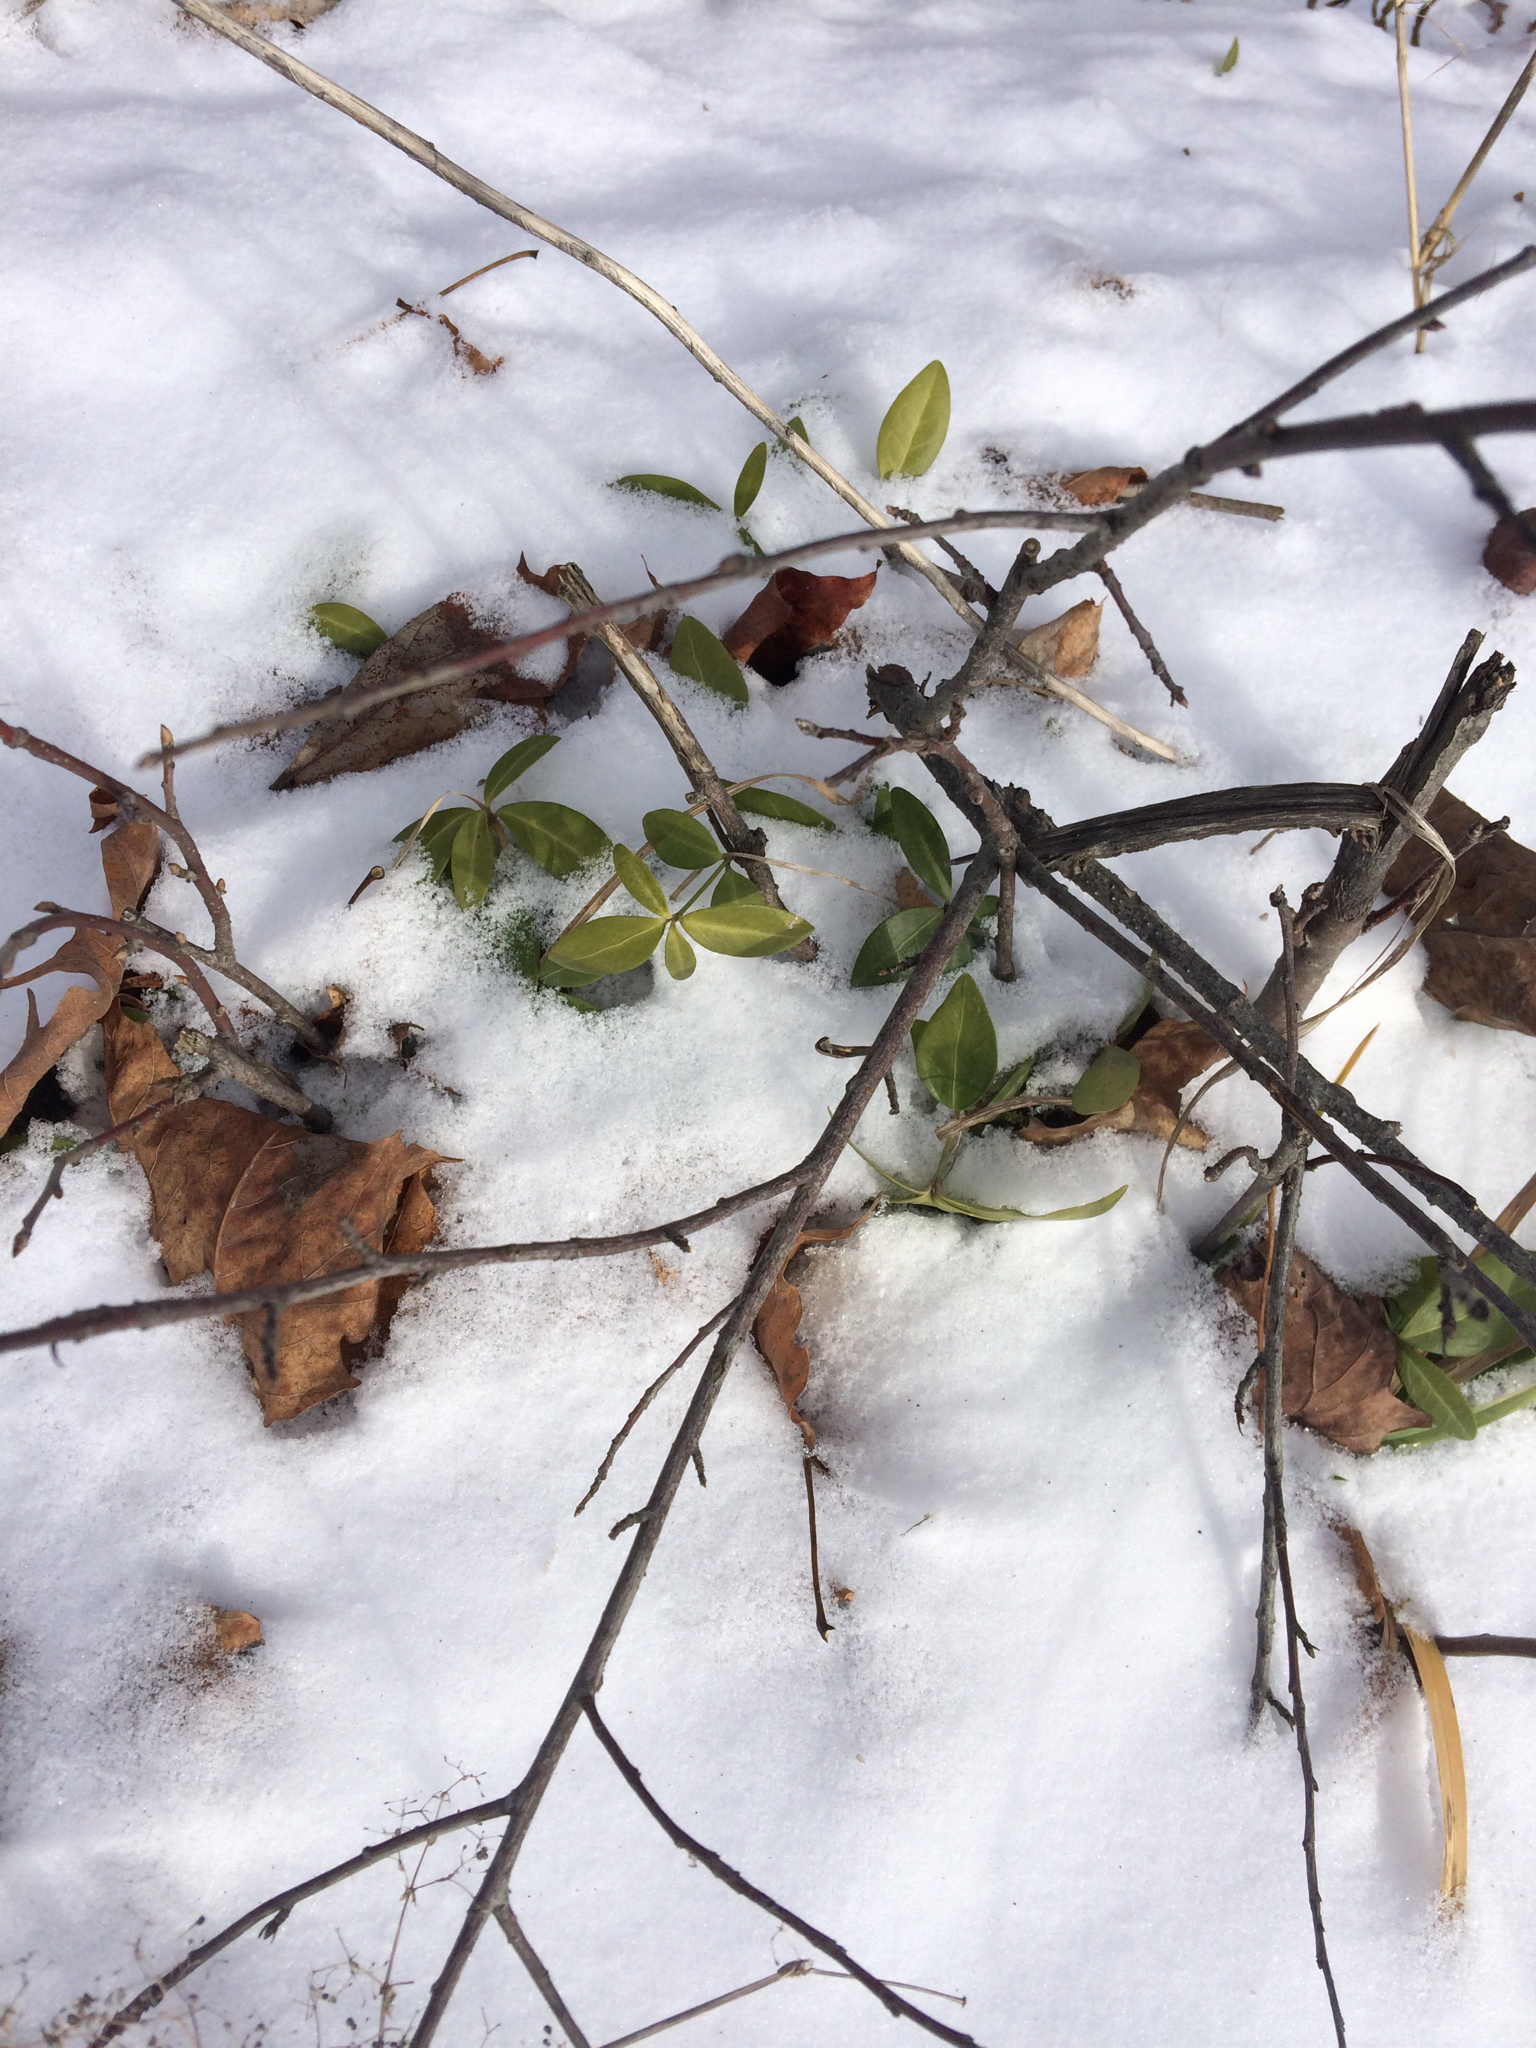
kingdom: Plantae
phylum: Tracheophyta
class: Magnoliopsida
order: Gentianales
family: Apocynaceae
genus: Vinca
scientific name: Vinca minor
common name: Lesser periwinkle
